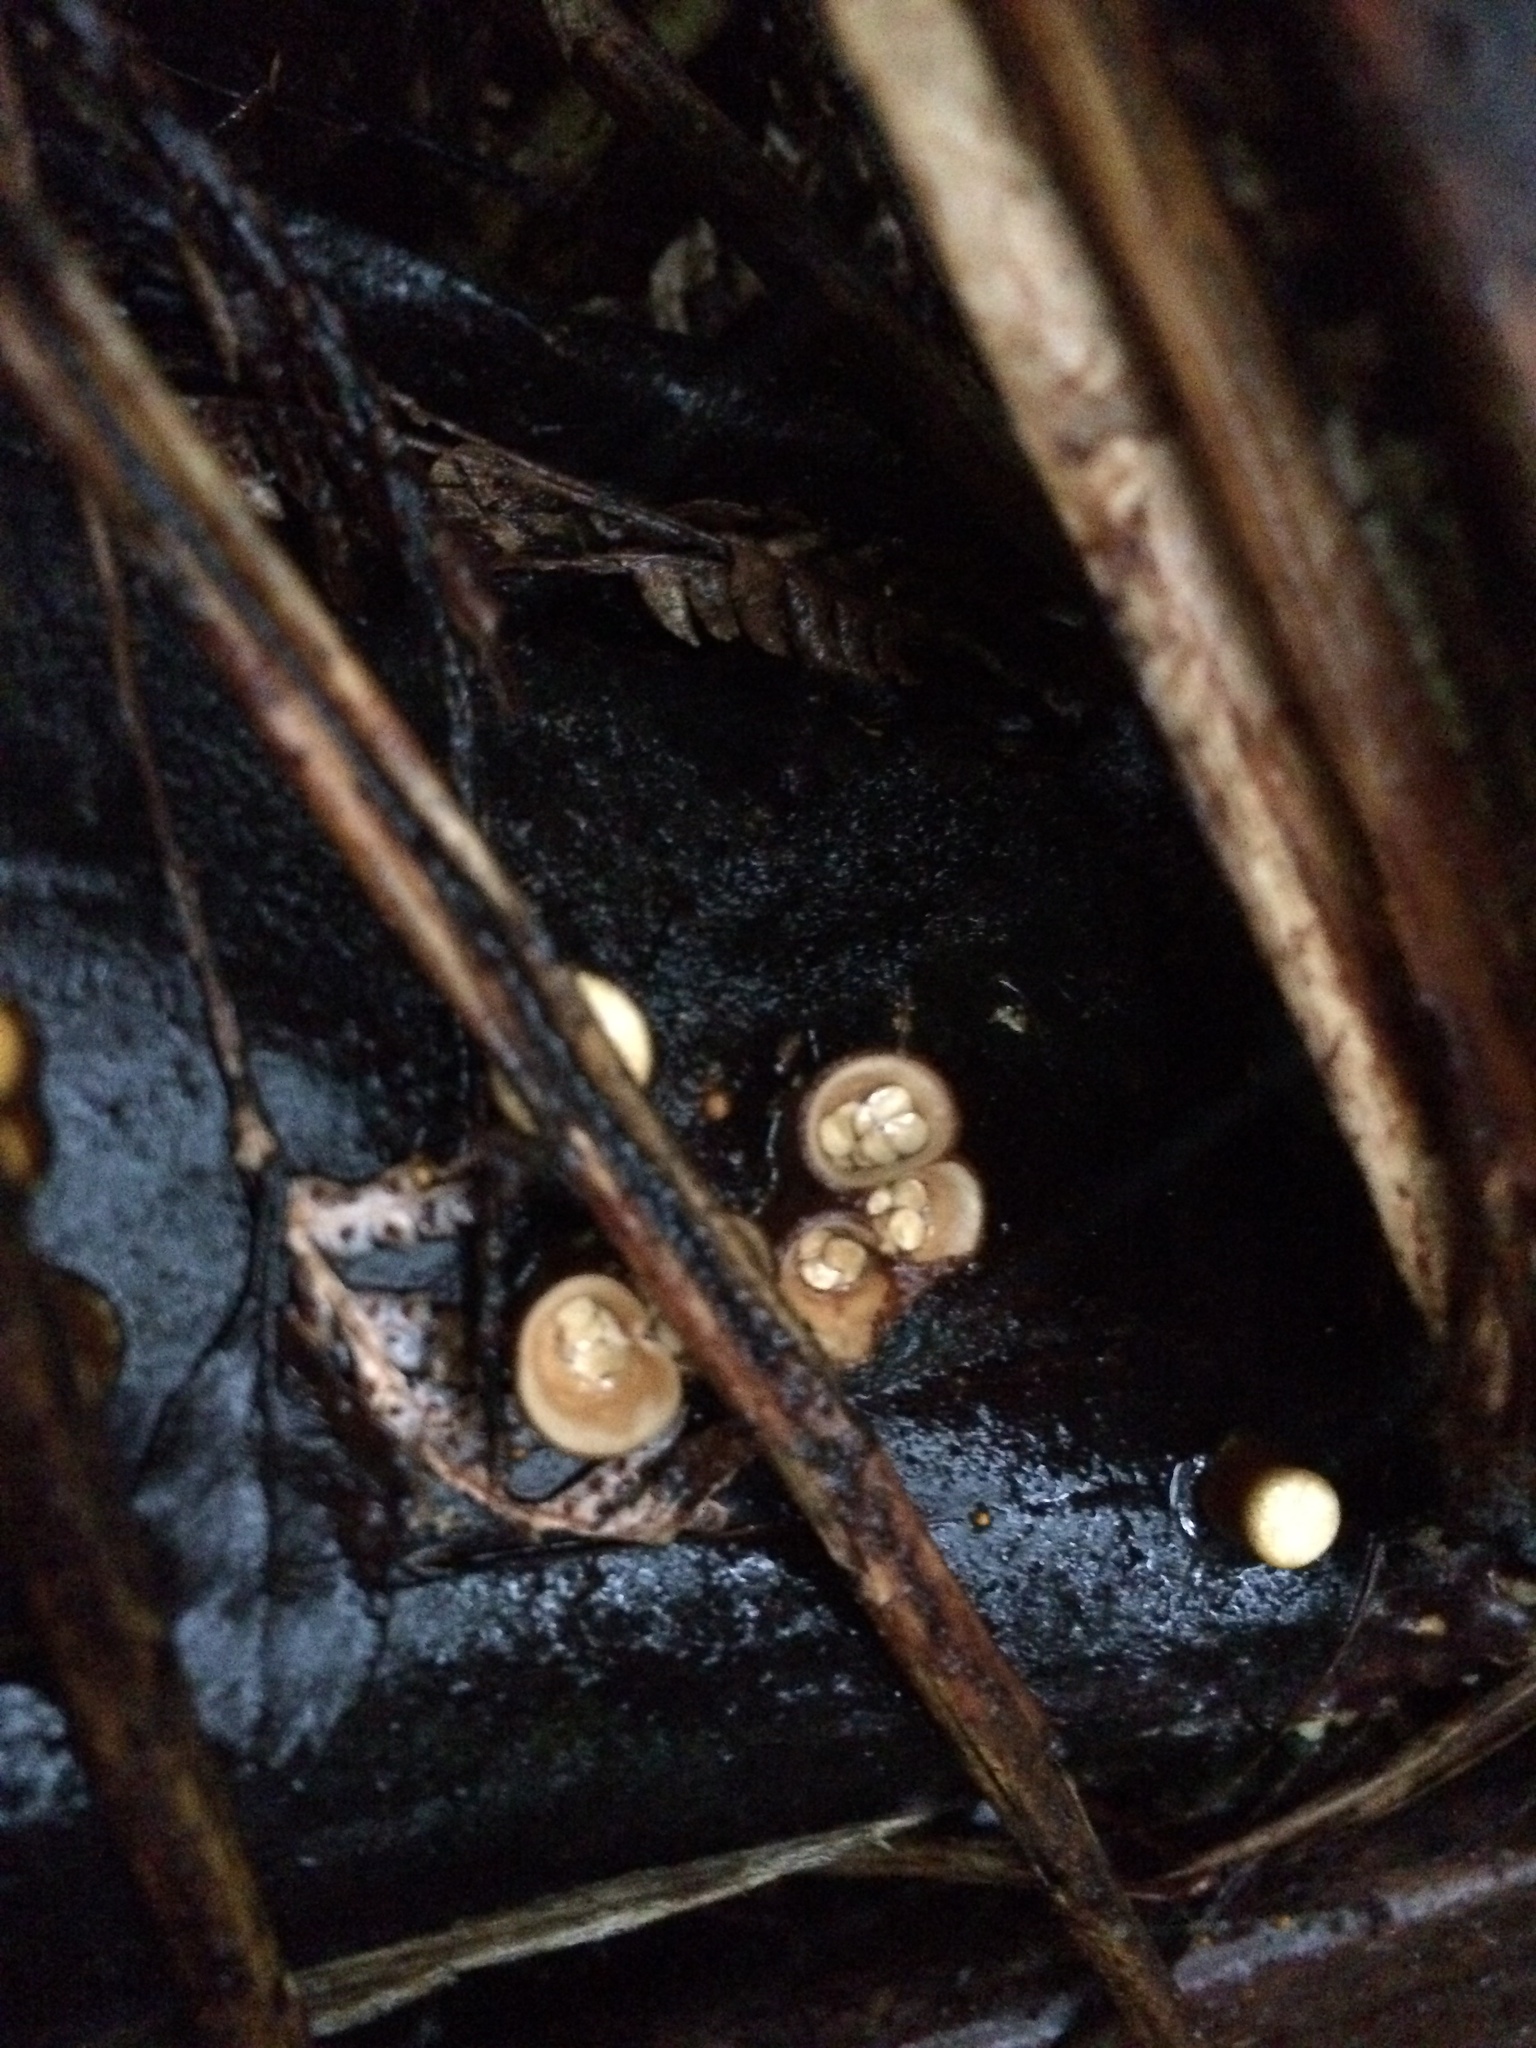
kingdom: Fungi
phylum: Basidiomycota
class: Agaricomycetes
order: Agaricales
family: Nidulariaceae
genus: Crucibulum
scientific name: Crucibulum simile
